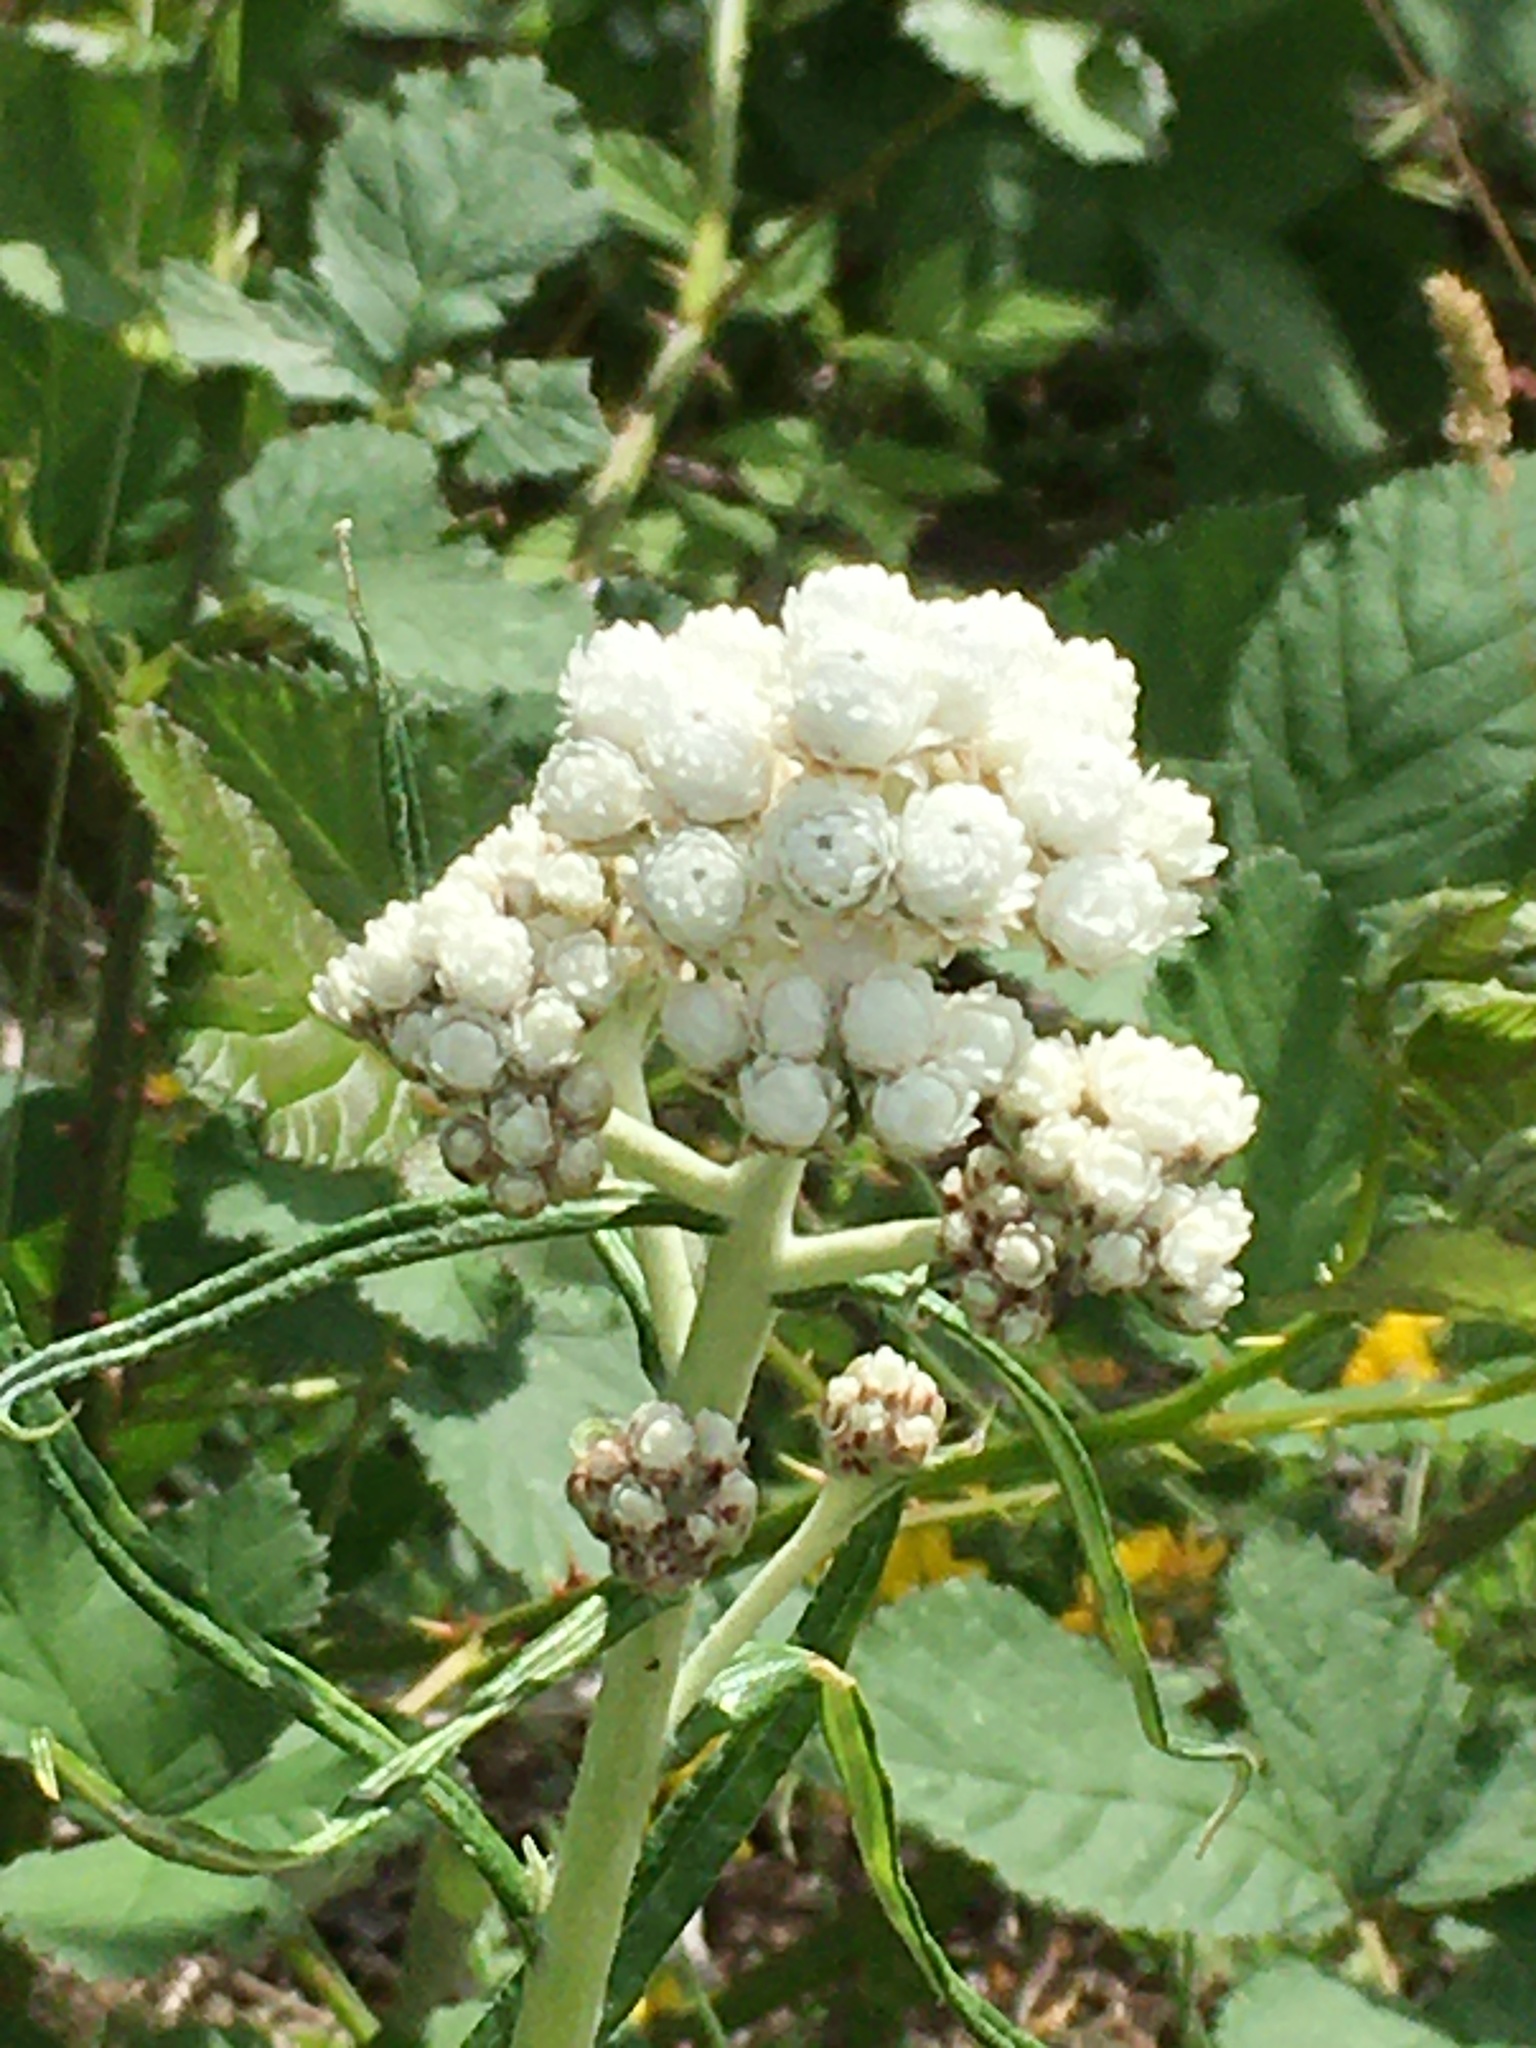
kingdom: Plantae
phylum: Tracheophyta
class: Magnoliopsida
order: Asterales
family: Asteraceae
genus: Anaphalis
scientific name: Anaphalis margaritacea
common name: Pearly everlasting
